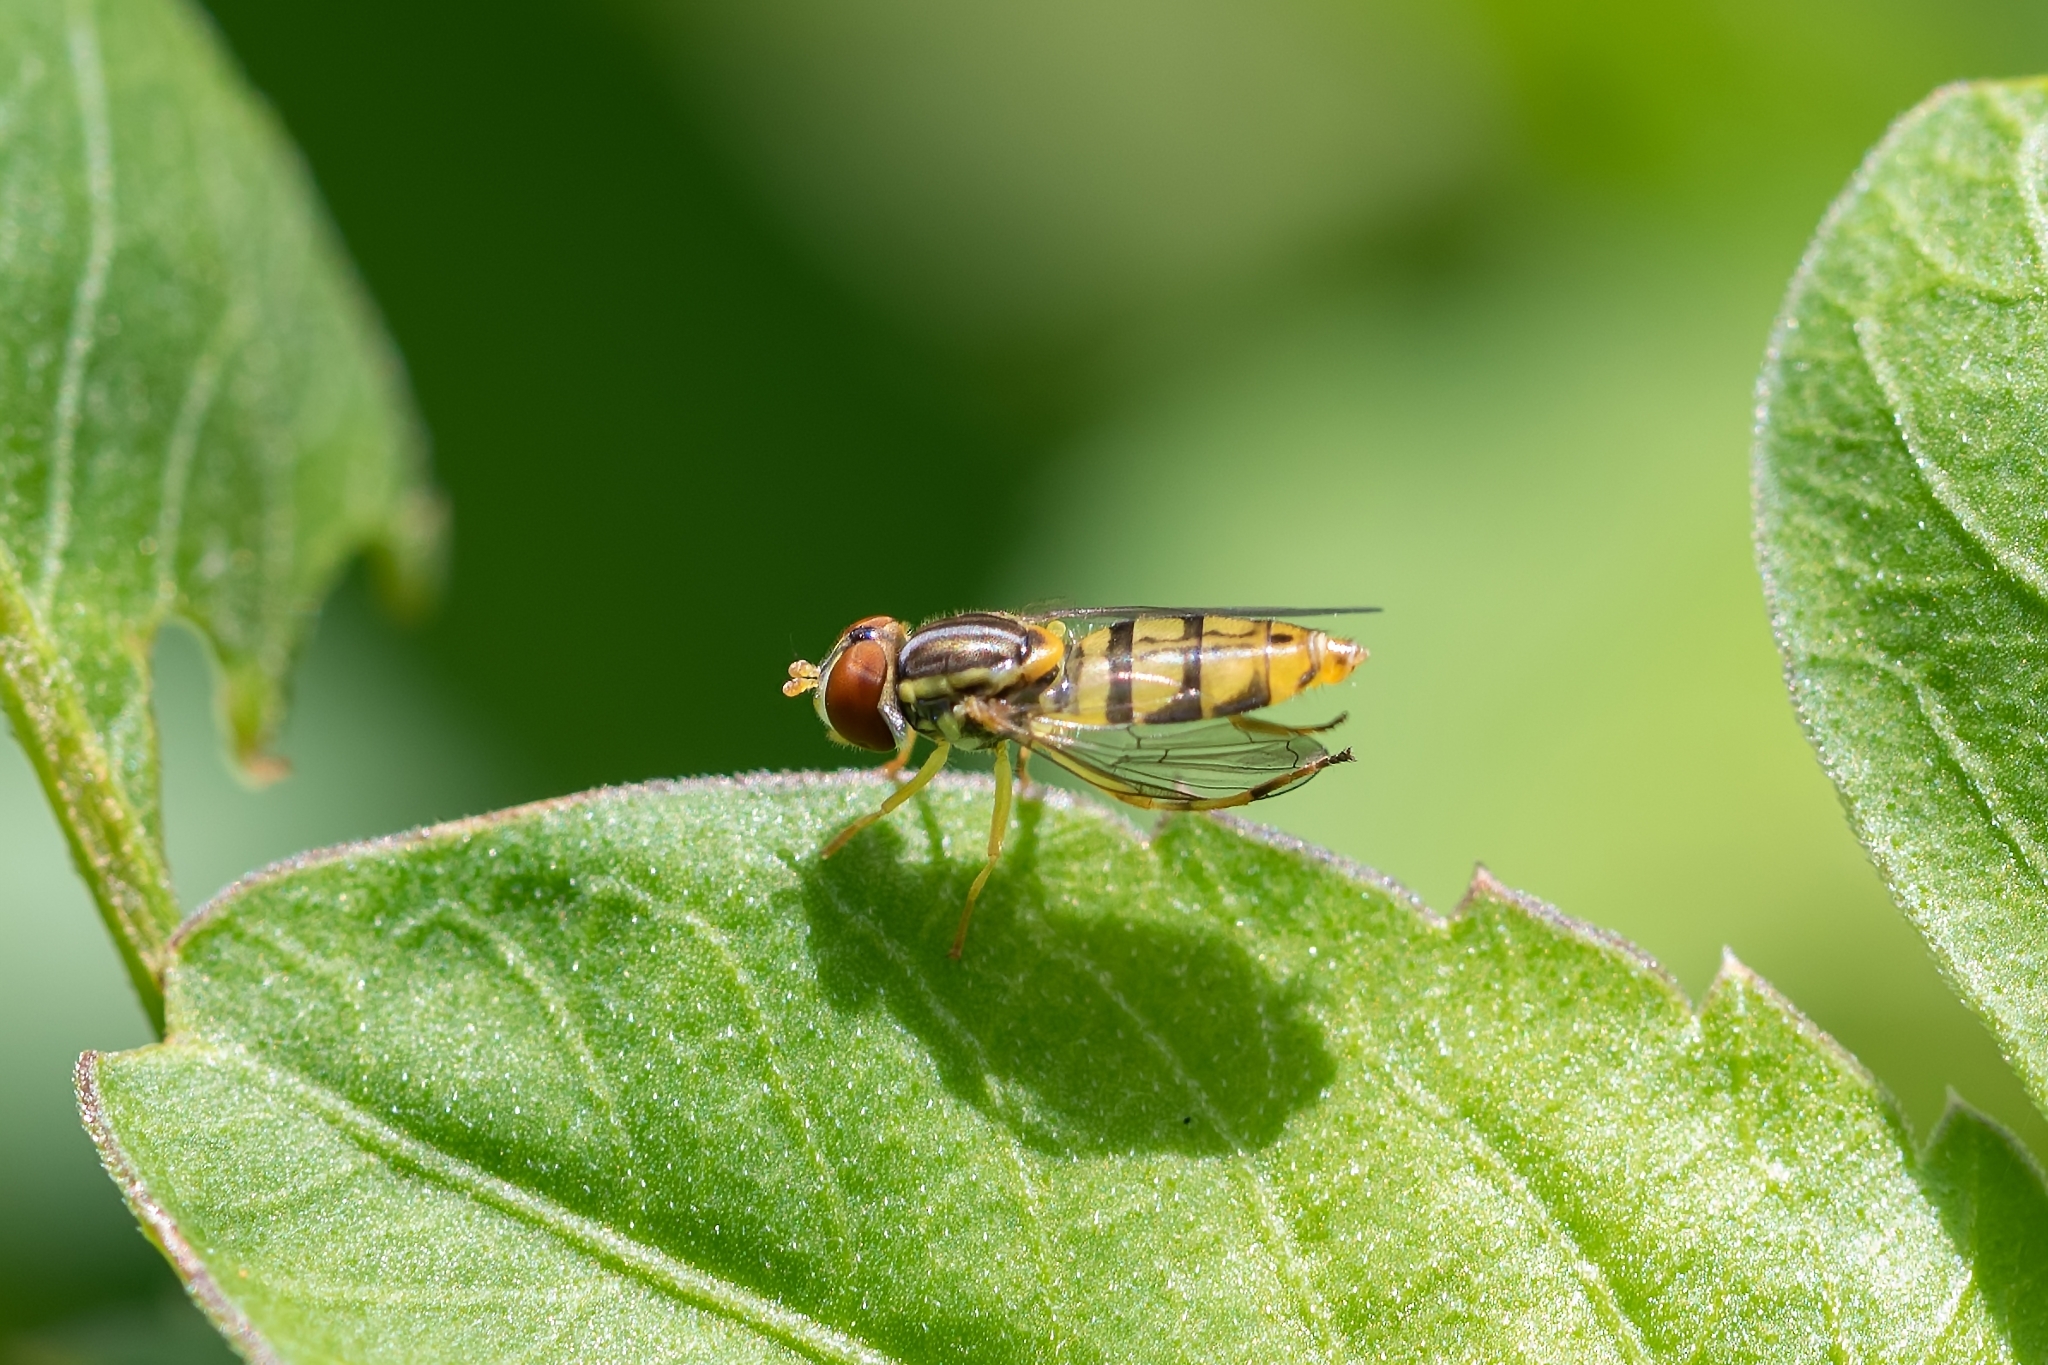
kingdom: Animalia
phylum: Arthropoda
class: Insecta
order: Diptera
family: Syrphidae
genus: Toxomerus
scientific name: Toxomerus floralis
